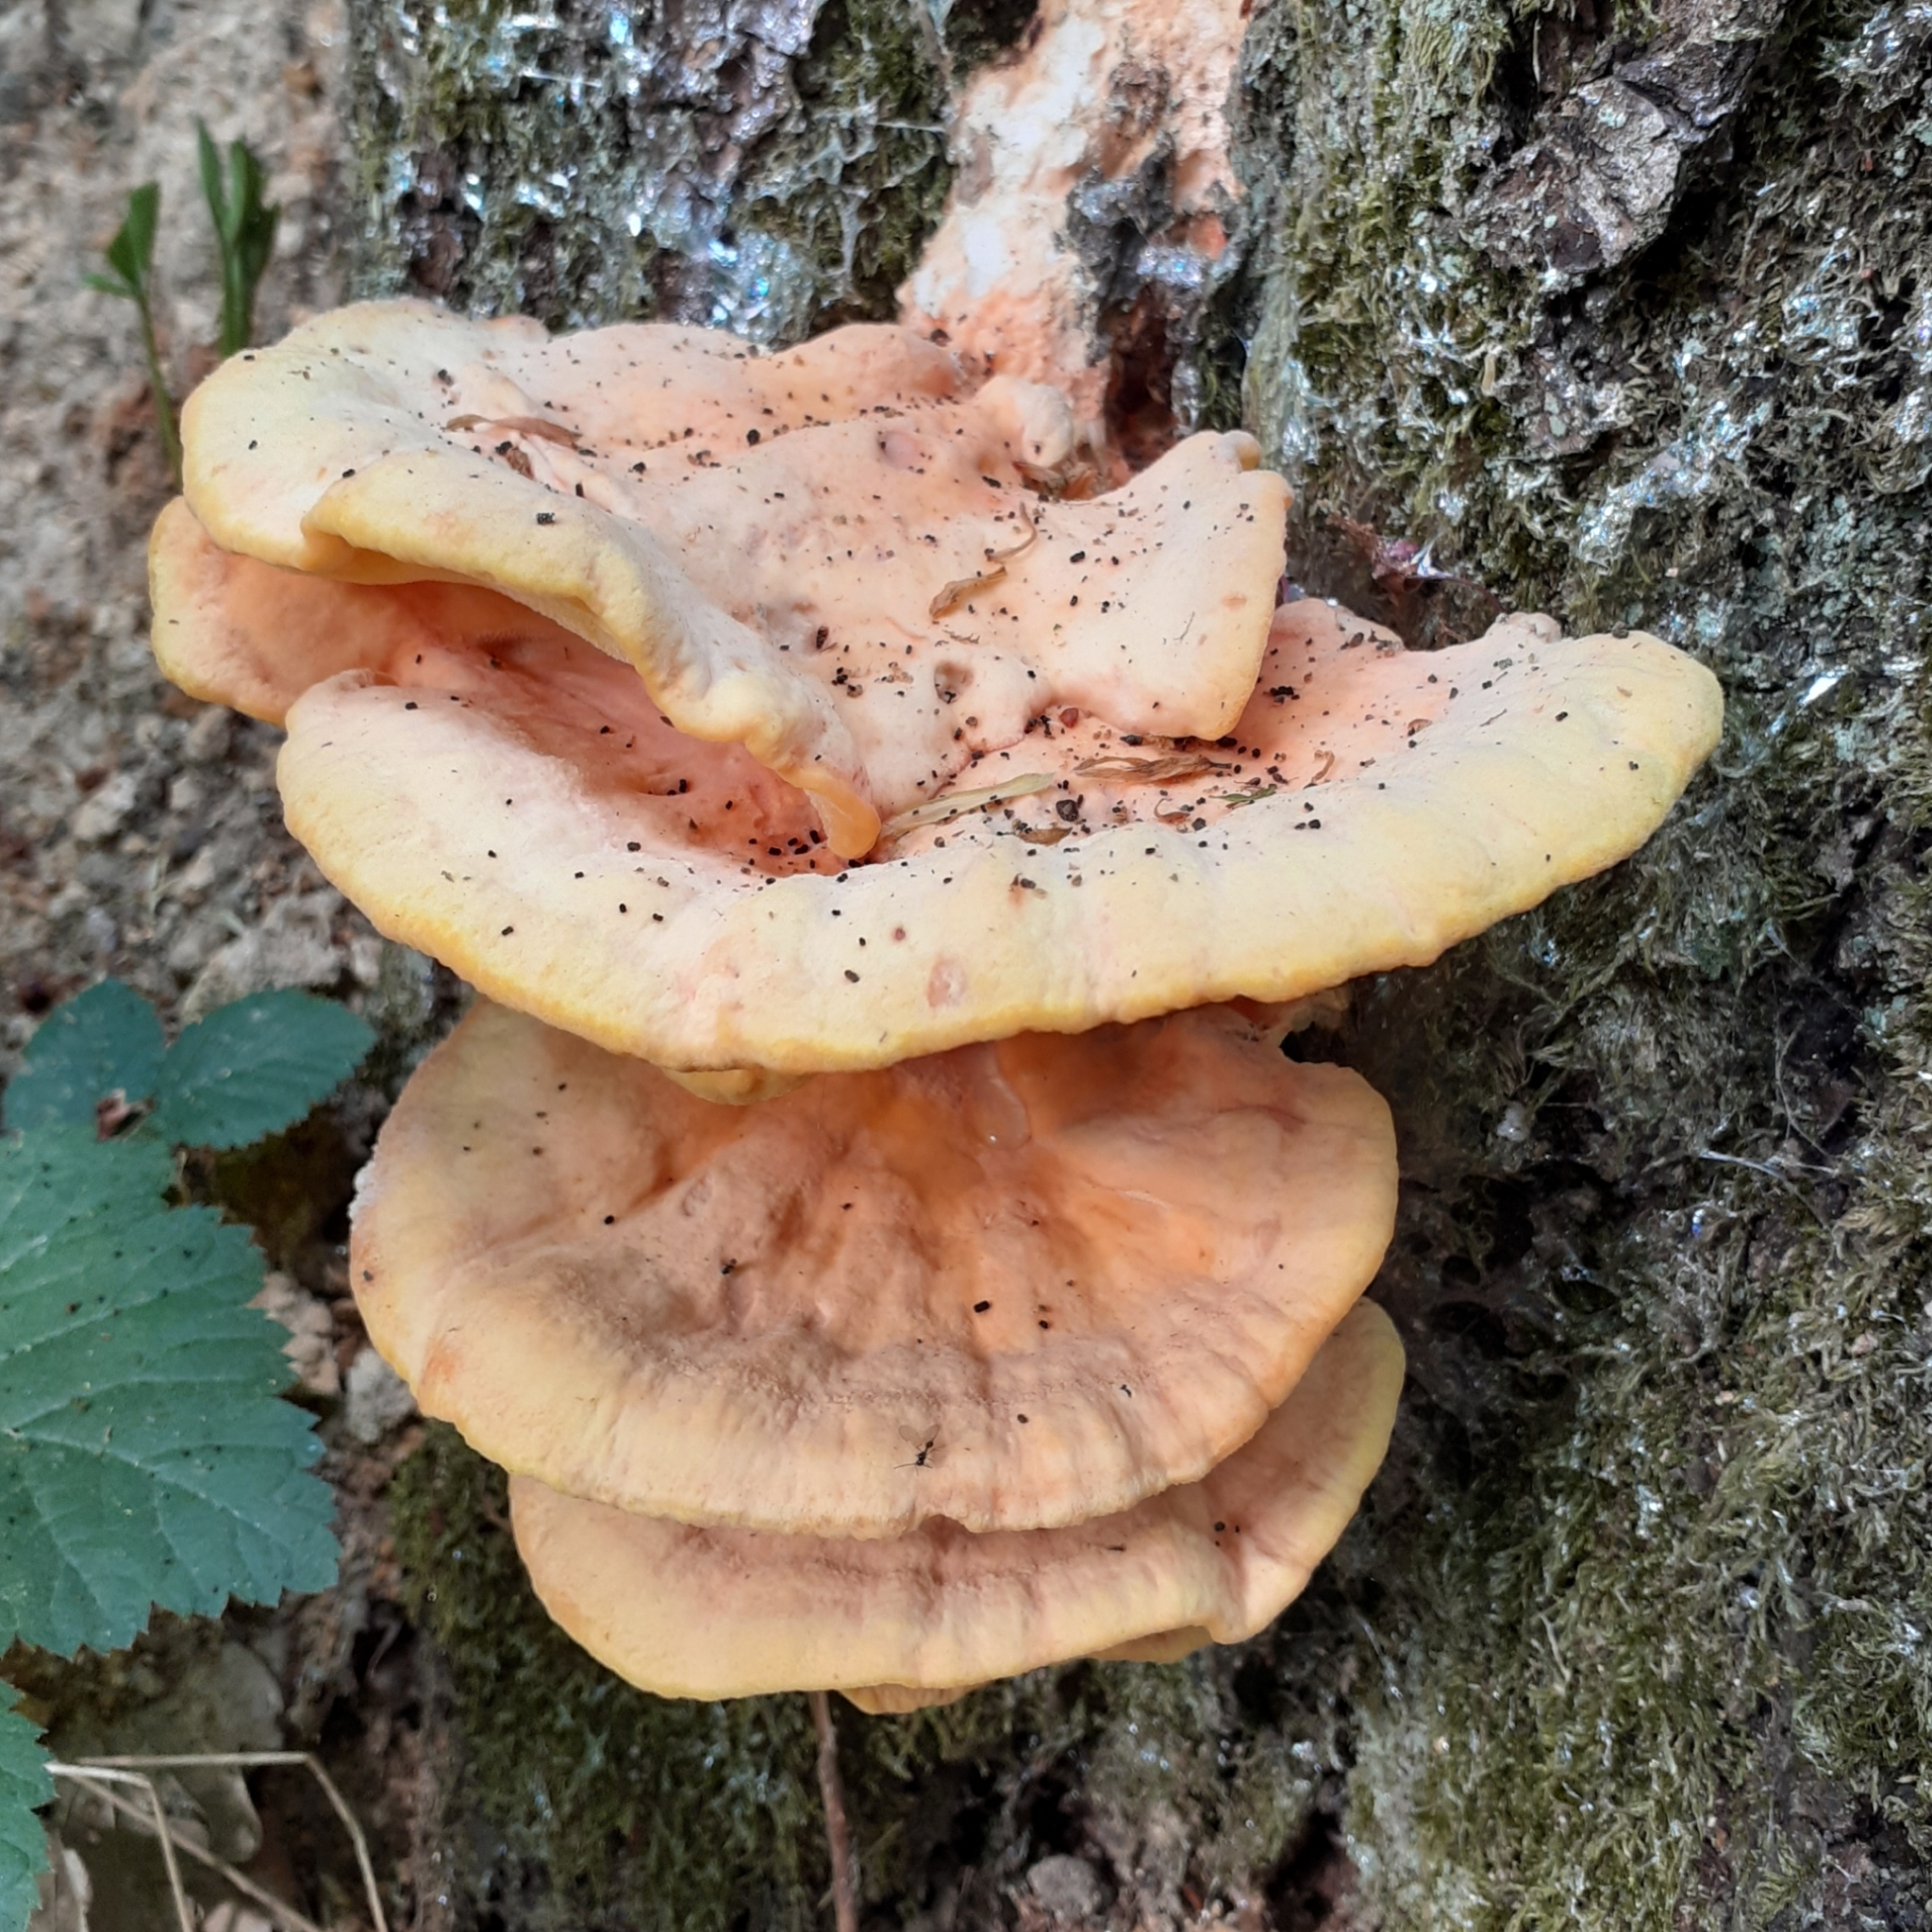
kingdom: Fungi
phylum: Basidiomycota
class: Agaricomycetes
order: Polyporales
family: Laetiporaceae
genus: Laetiporus
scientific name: Laetiporus sulphureus
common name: Chicken of the woods
